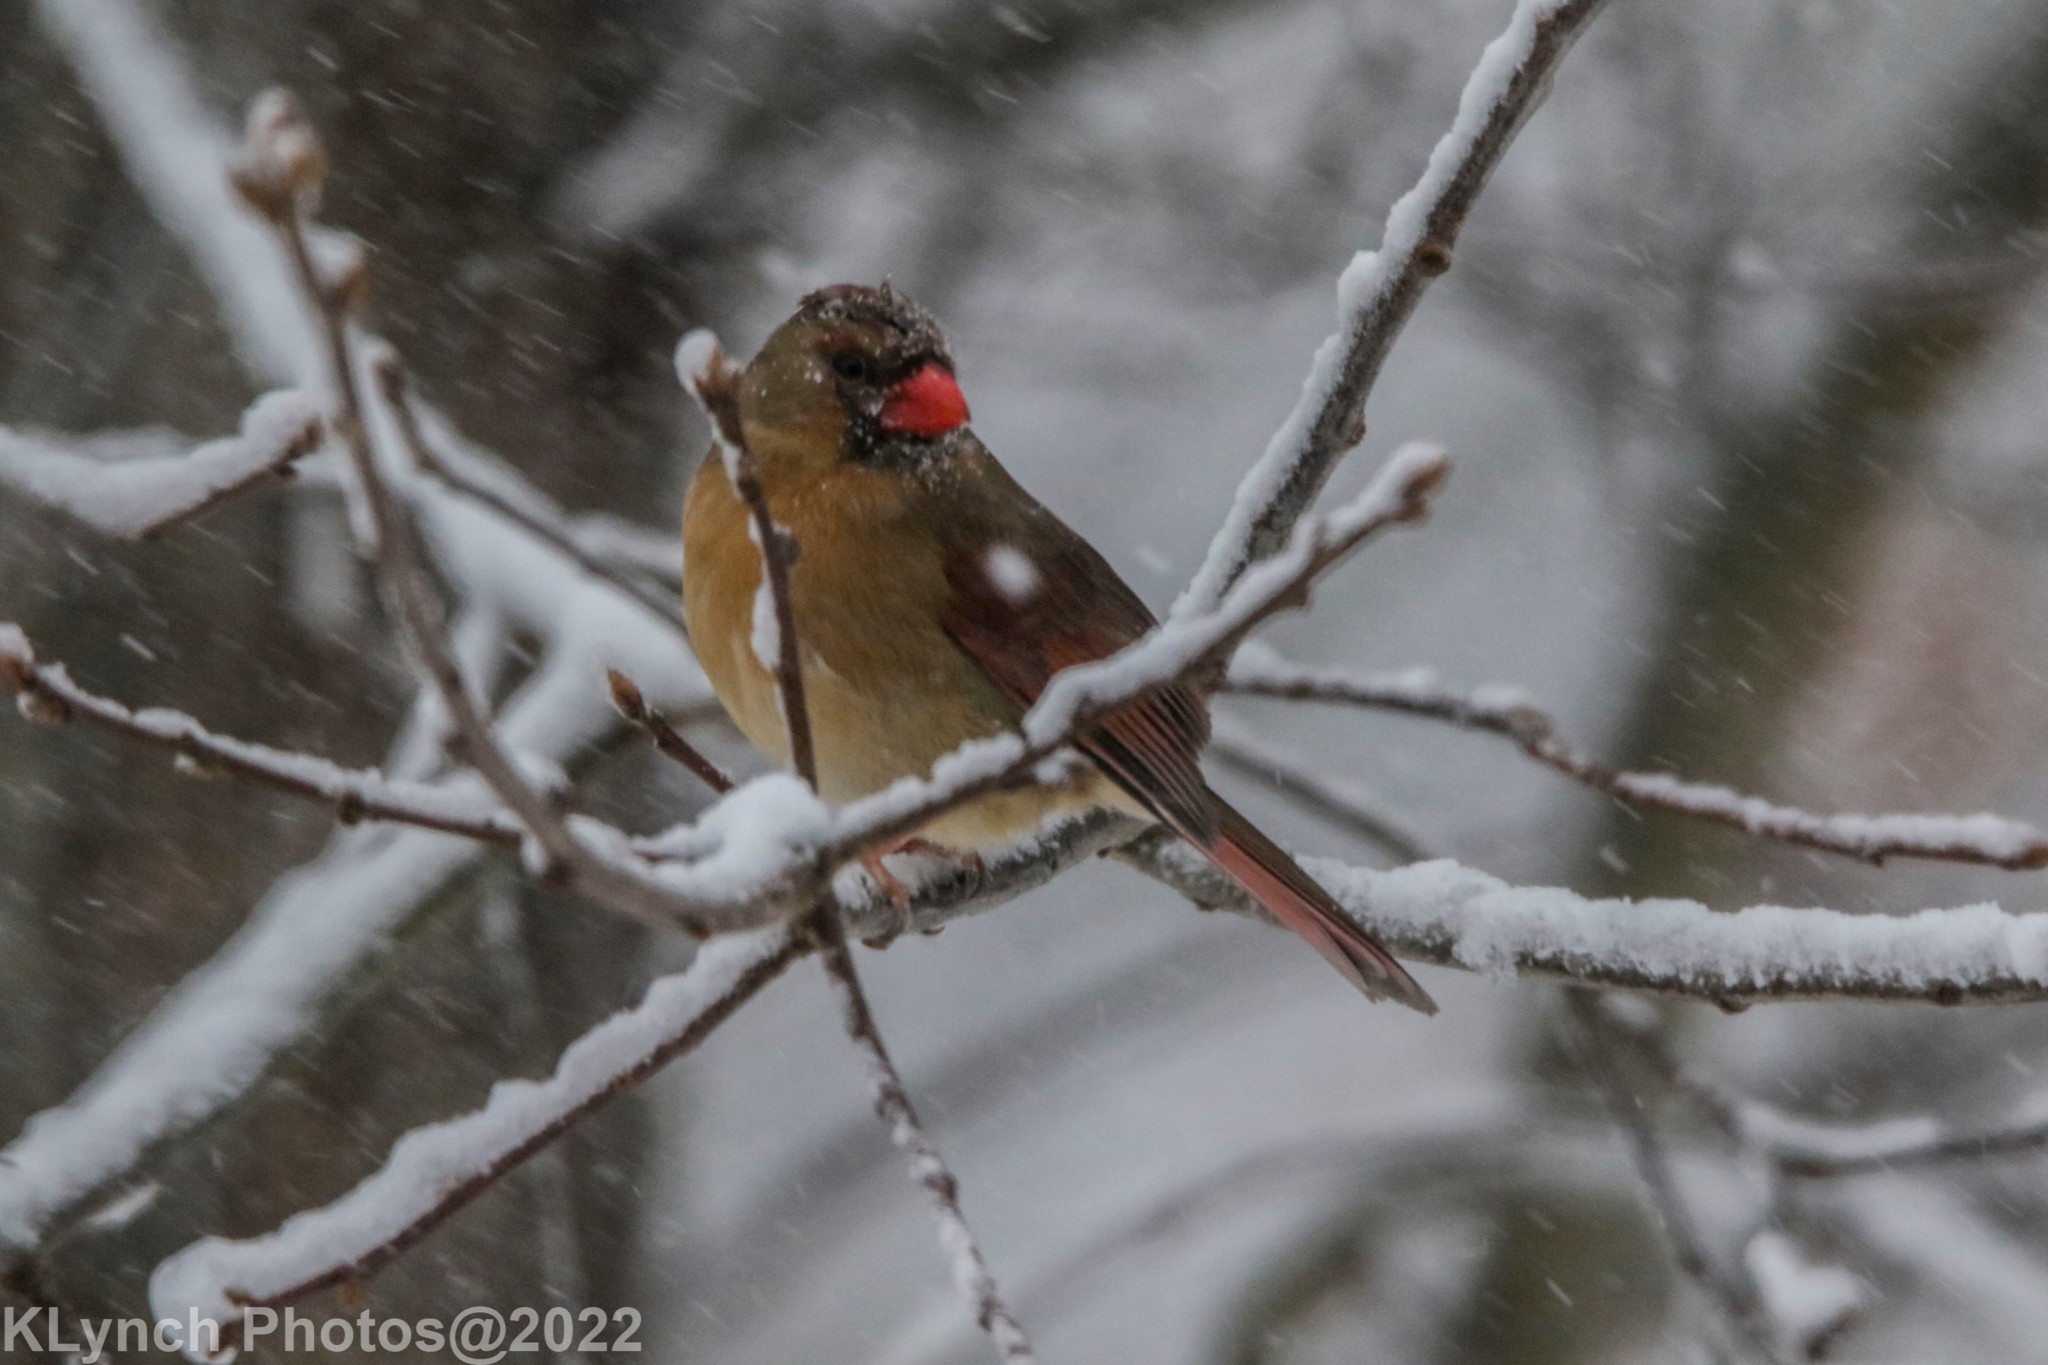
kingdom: Animalia
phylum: Chordata
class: Aves
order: Passeriformes
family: Cardinalidae
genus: Cardinalis
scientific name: Cardinalis cardinalis
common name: Northern cardinal
